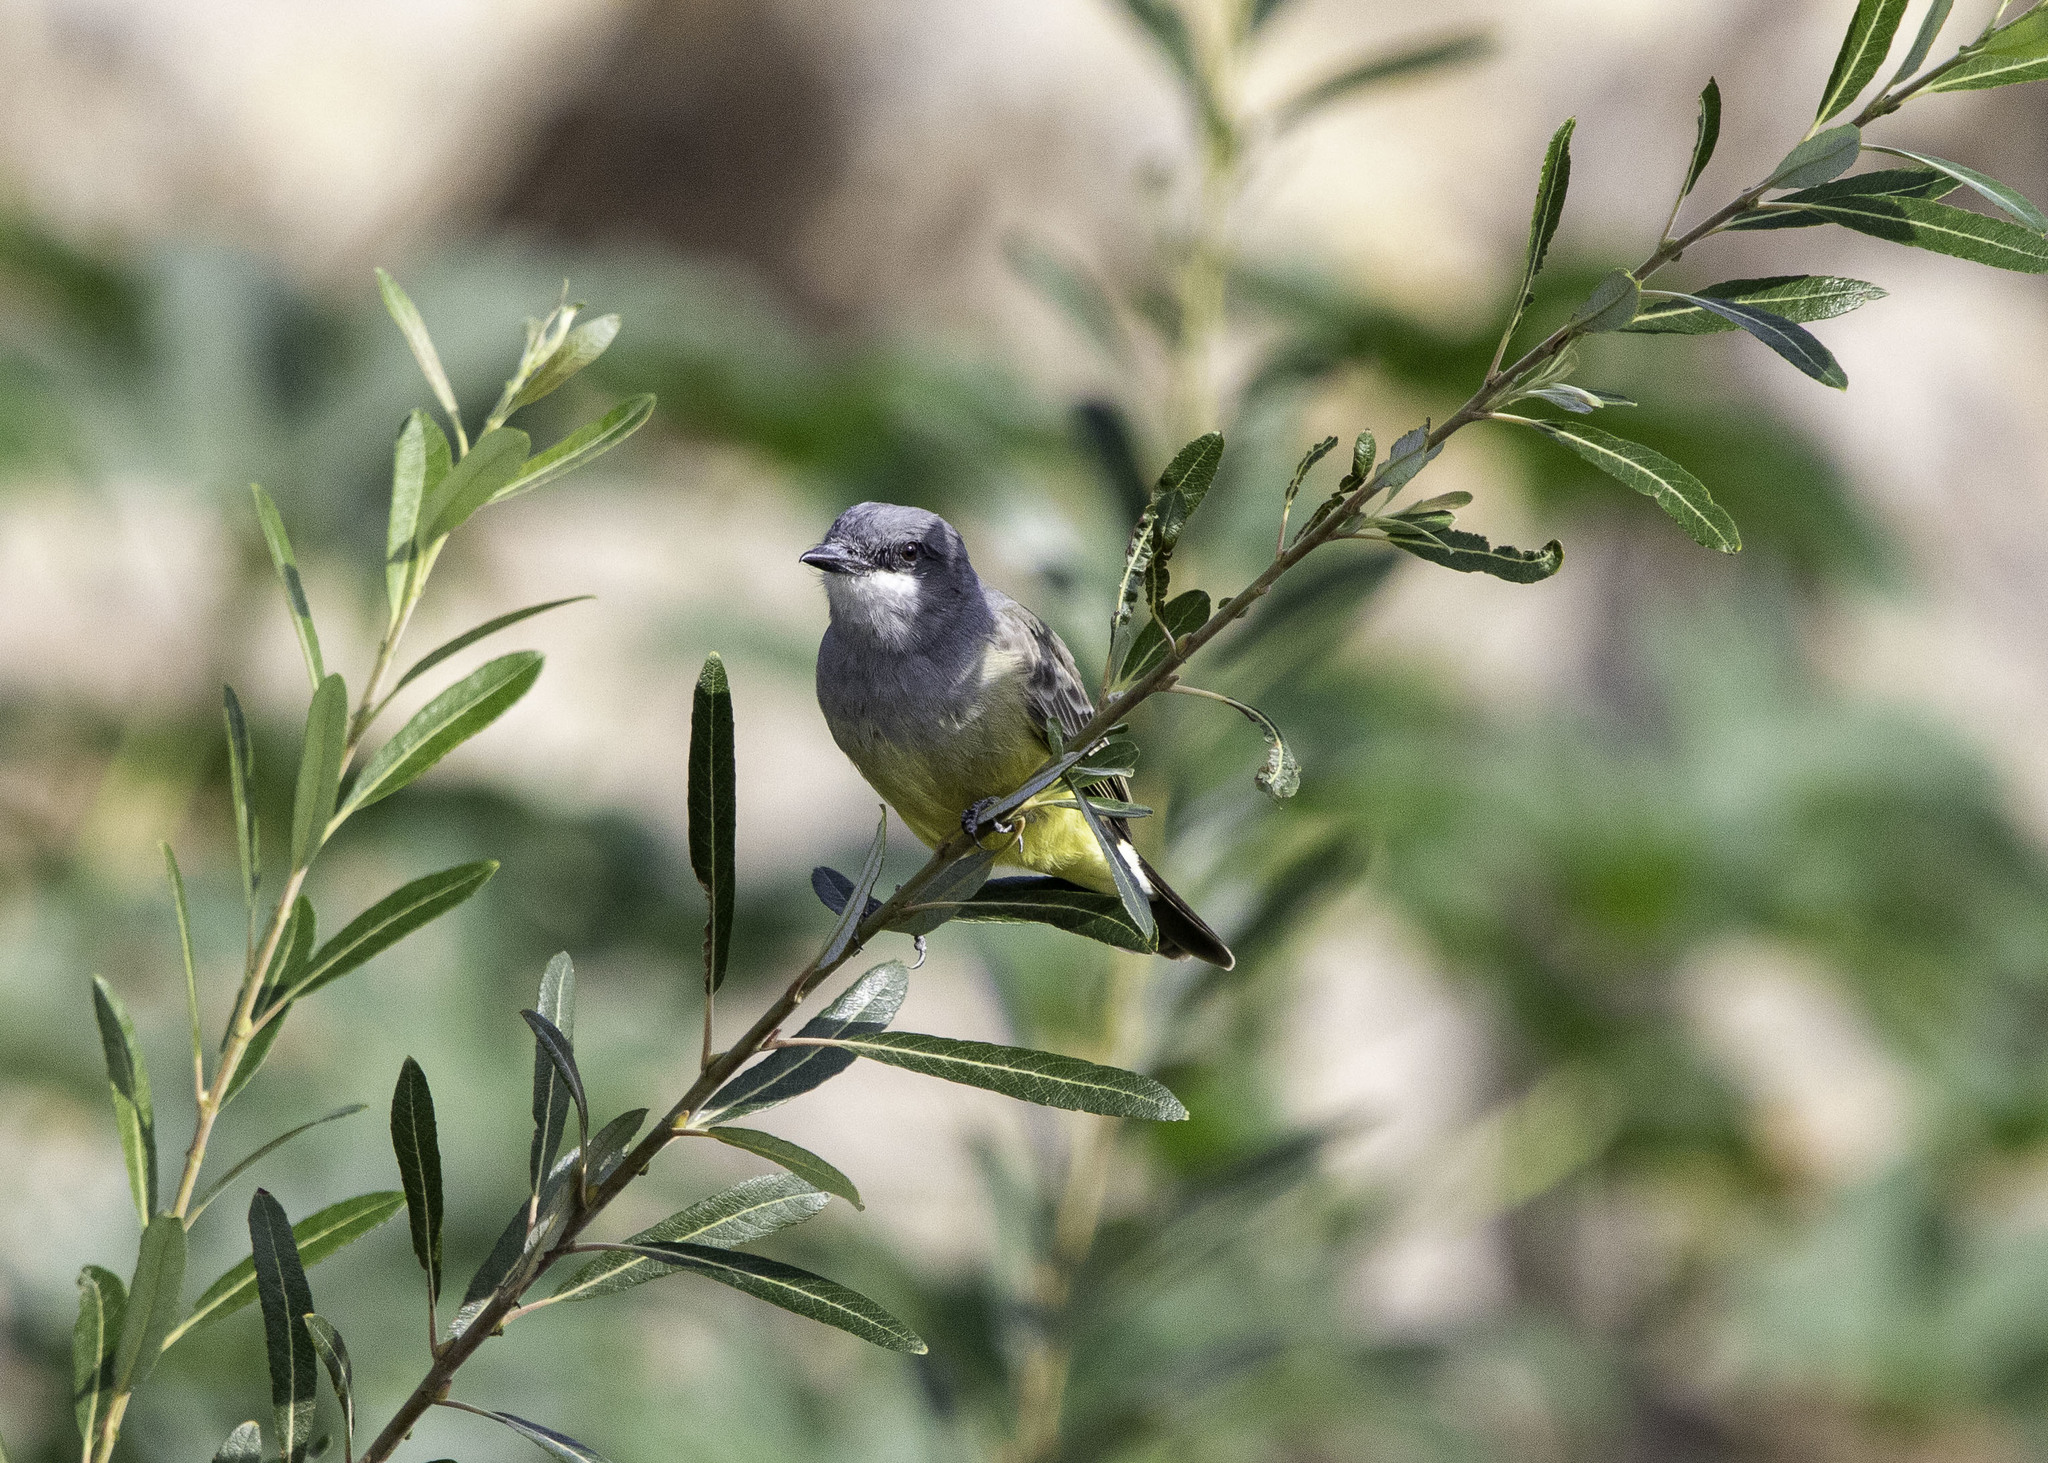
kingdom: Animalia
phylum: Chordata
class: Aves
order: Passeriformes
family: Tyrannidae
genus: Tyrannus
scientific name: Tyrannus vociferans
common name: Cassin's kingbird
